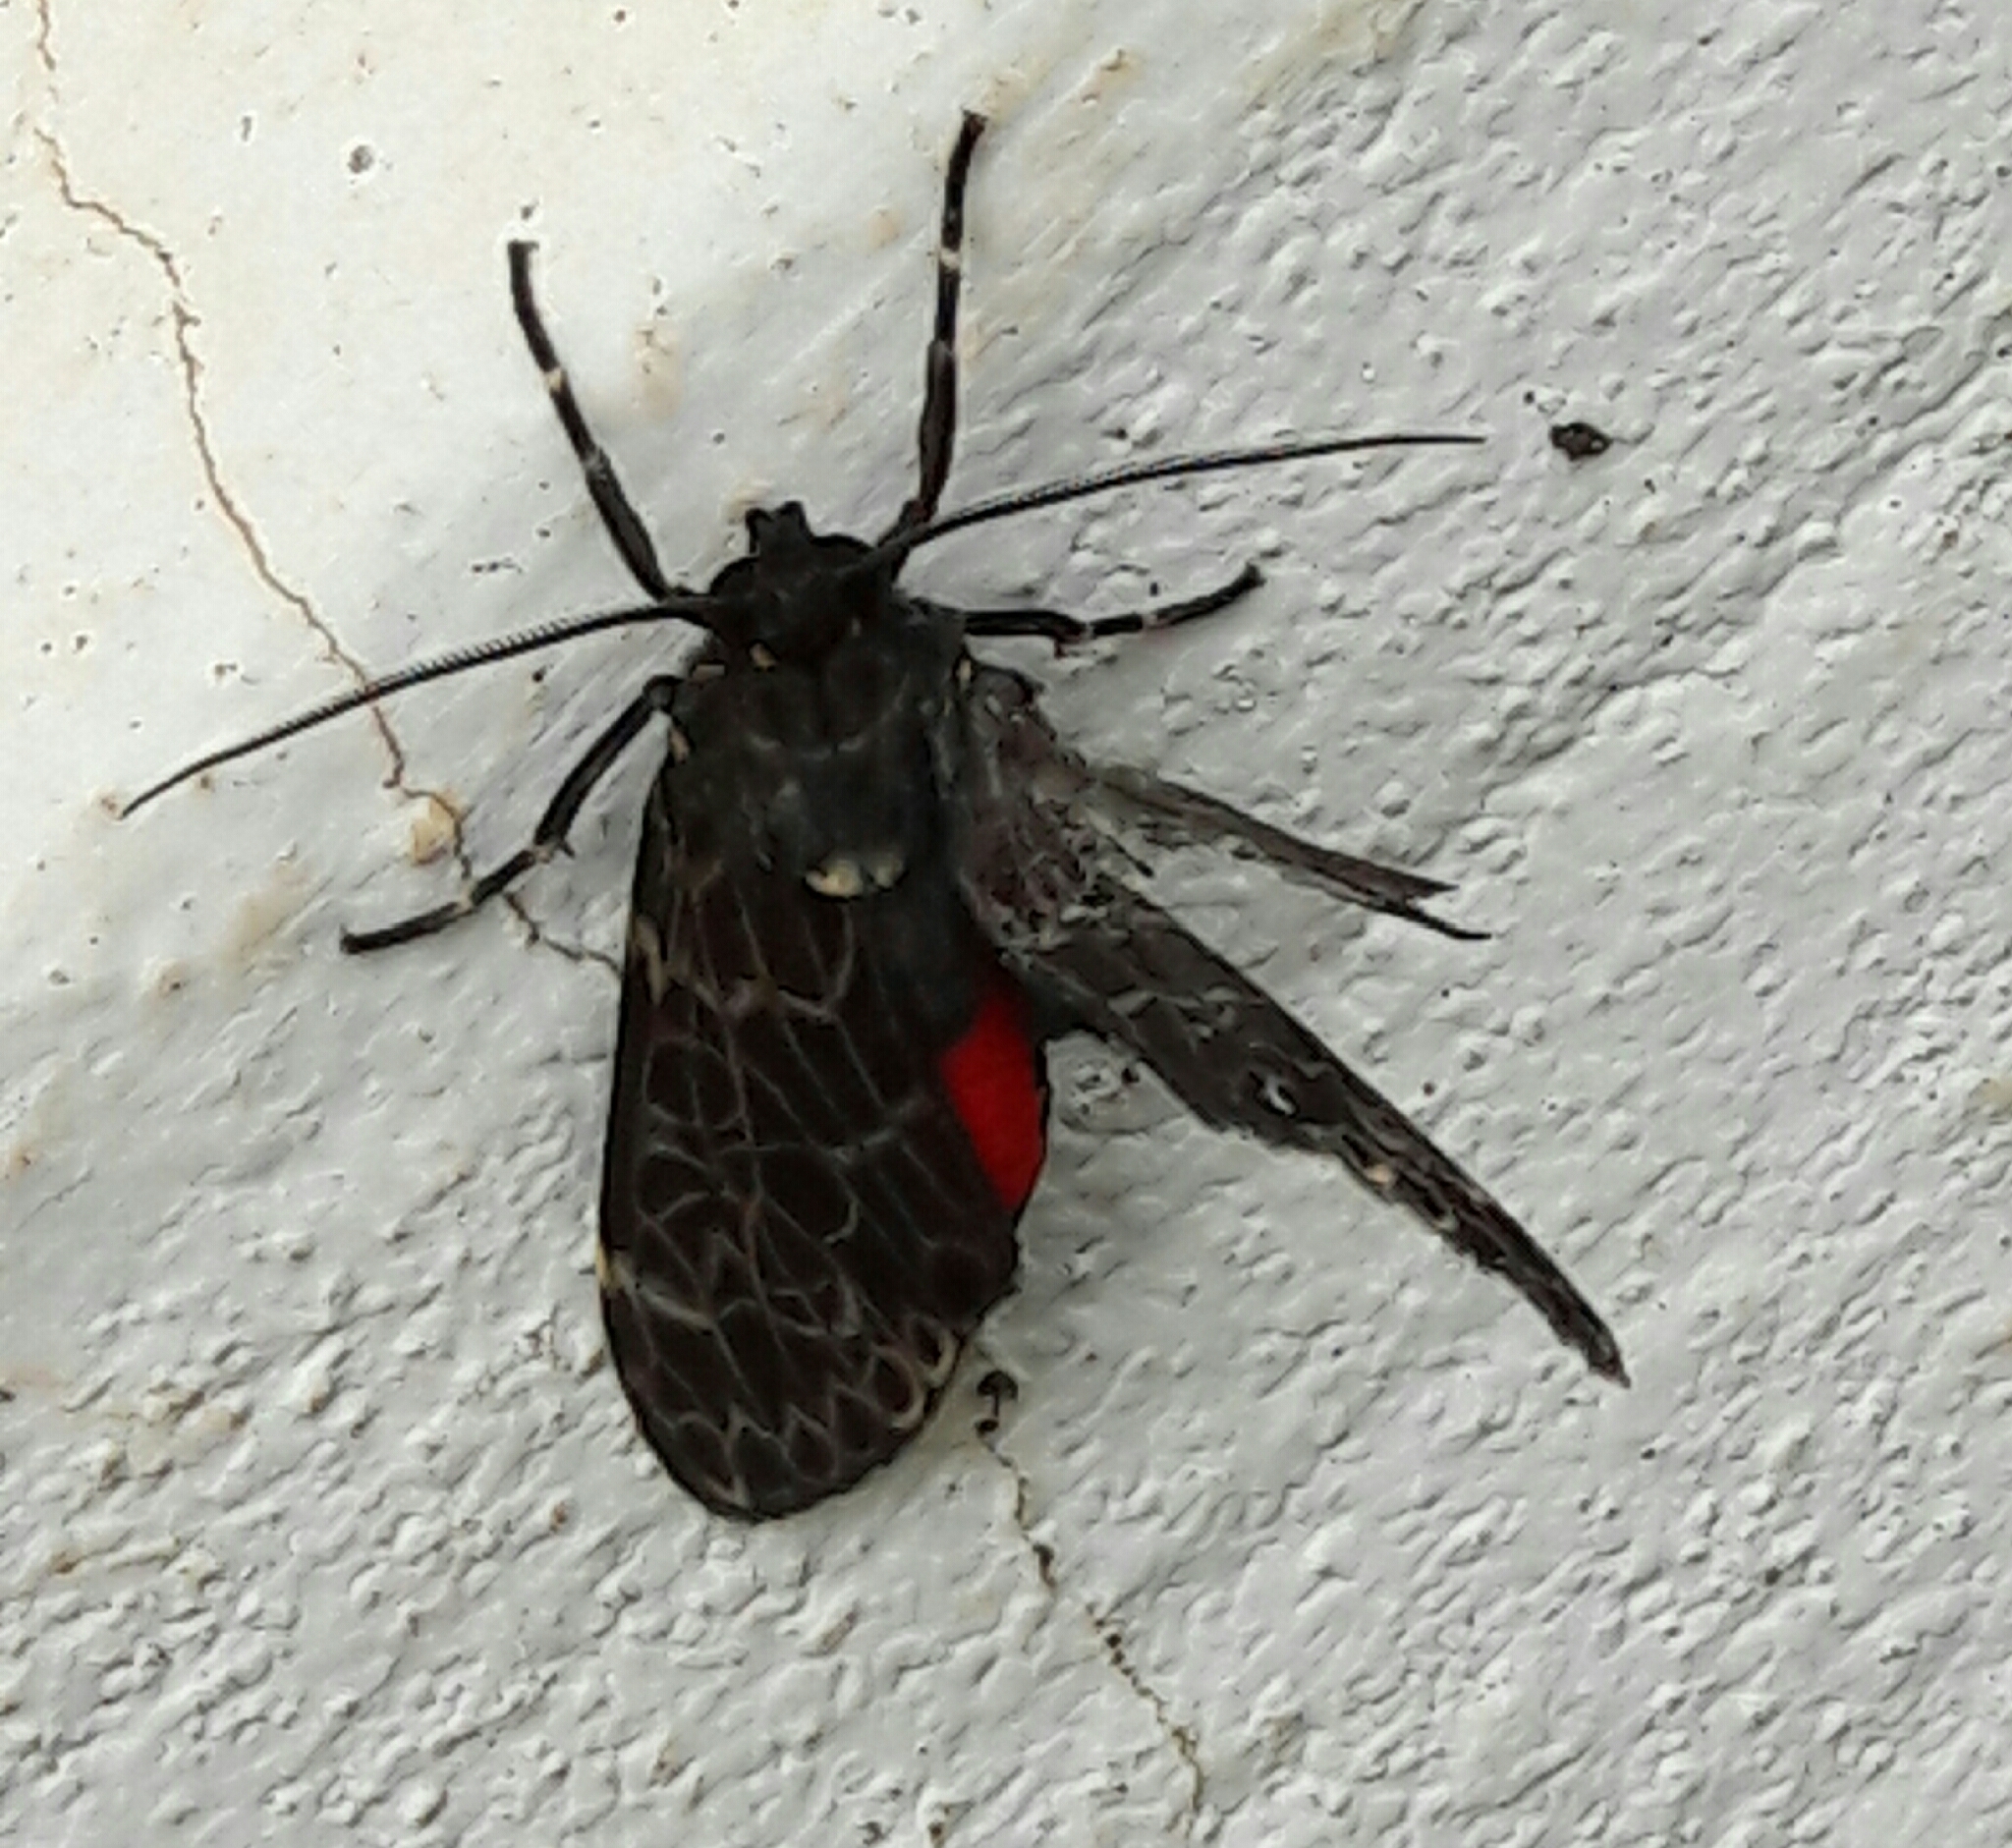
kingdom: Animalia
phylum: Arthropoda
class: Insecta
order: Lepidoptera
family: Erebidae
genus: Eucereon
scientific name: Eucereon sylvius
